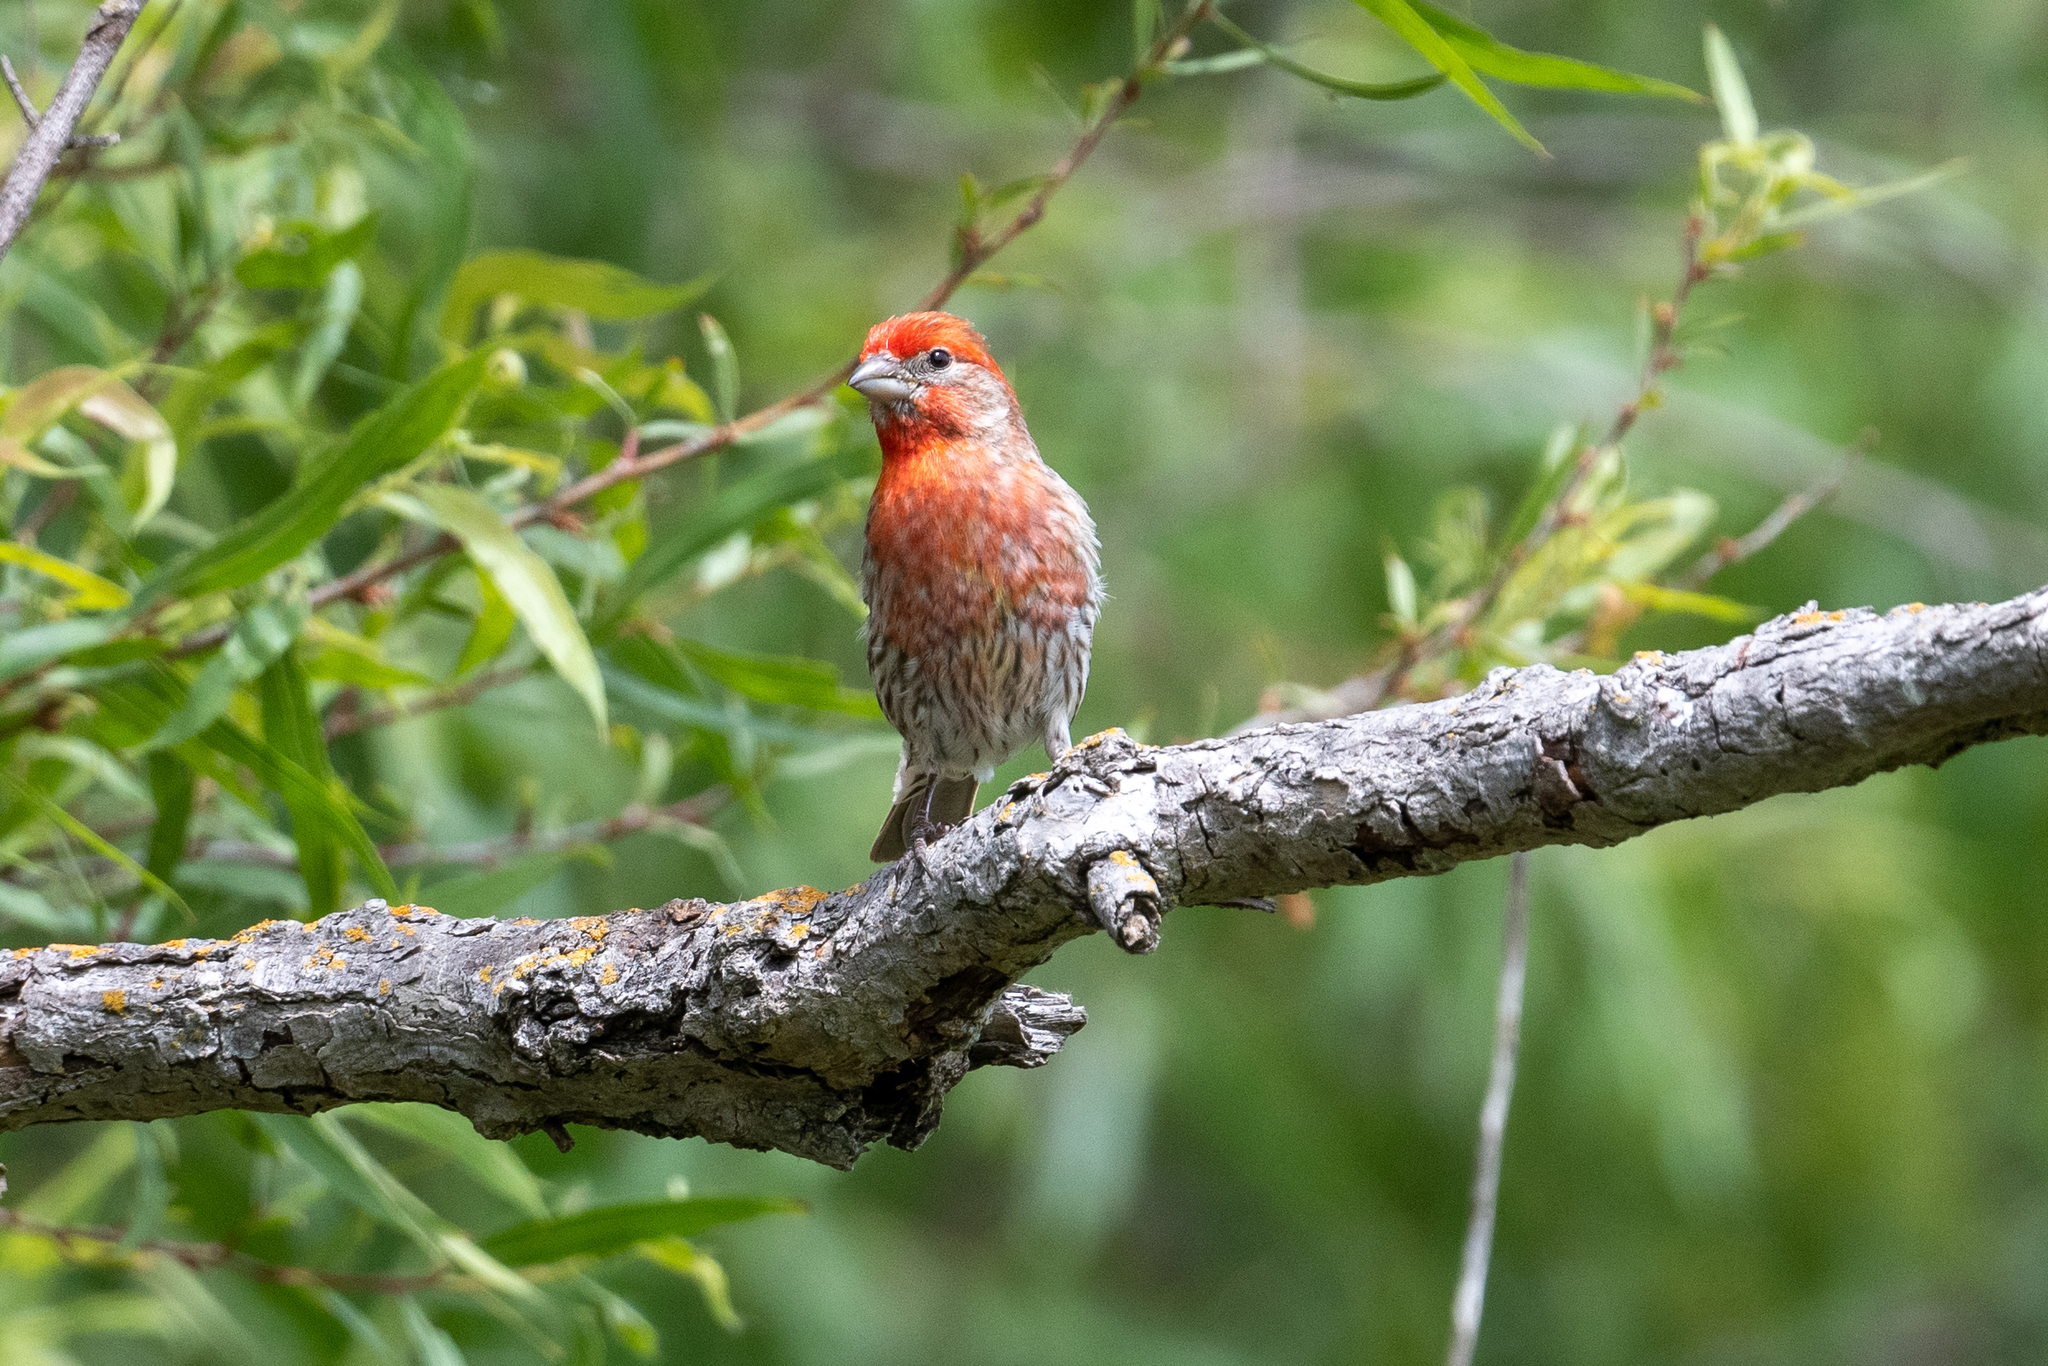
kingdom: Animalia
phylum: Chordata
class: Aves
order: Passeriformes
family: Fringillidae
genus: Haemorhous
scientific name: Haemorhous mexicanus
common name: House finch
